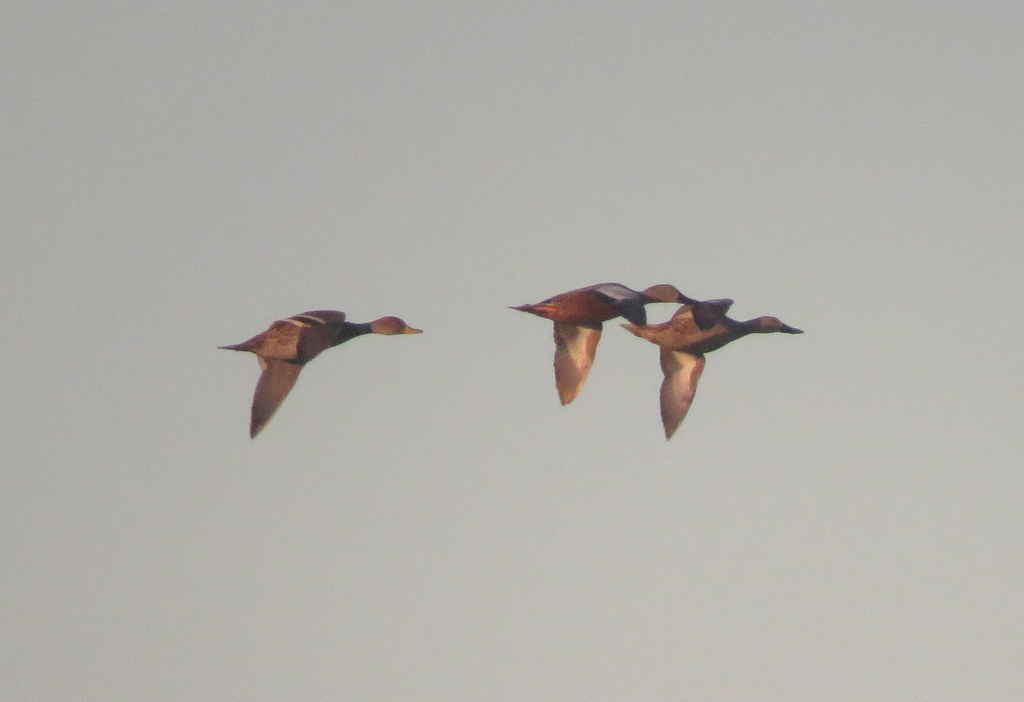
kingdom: Animalia
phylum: Chordata
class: Aves
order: Anseriformes
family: Anatidae
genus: Spatula
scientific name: Spatula platalea
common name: Red shoveler
